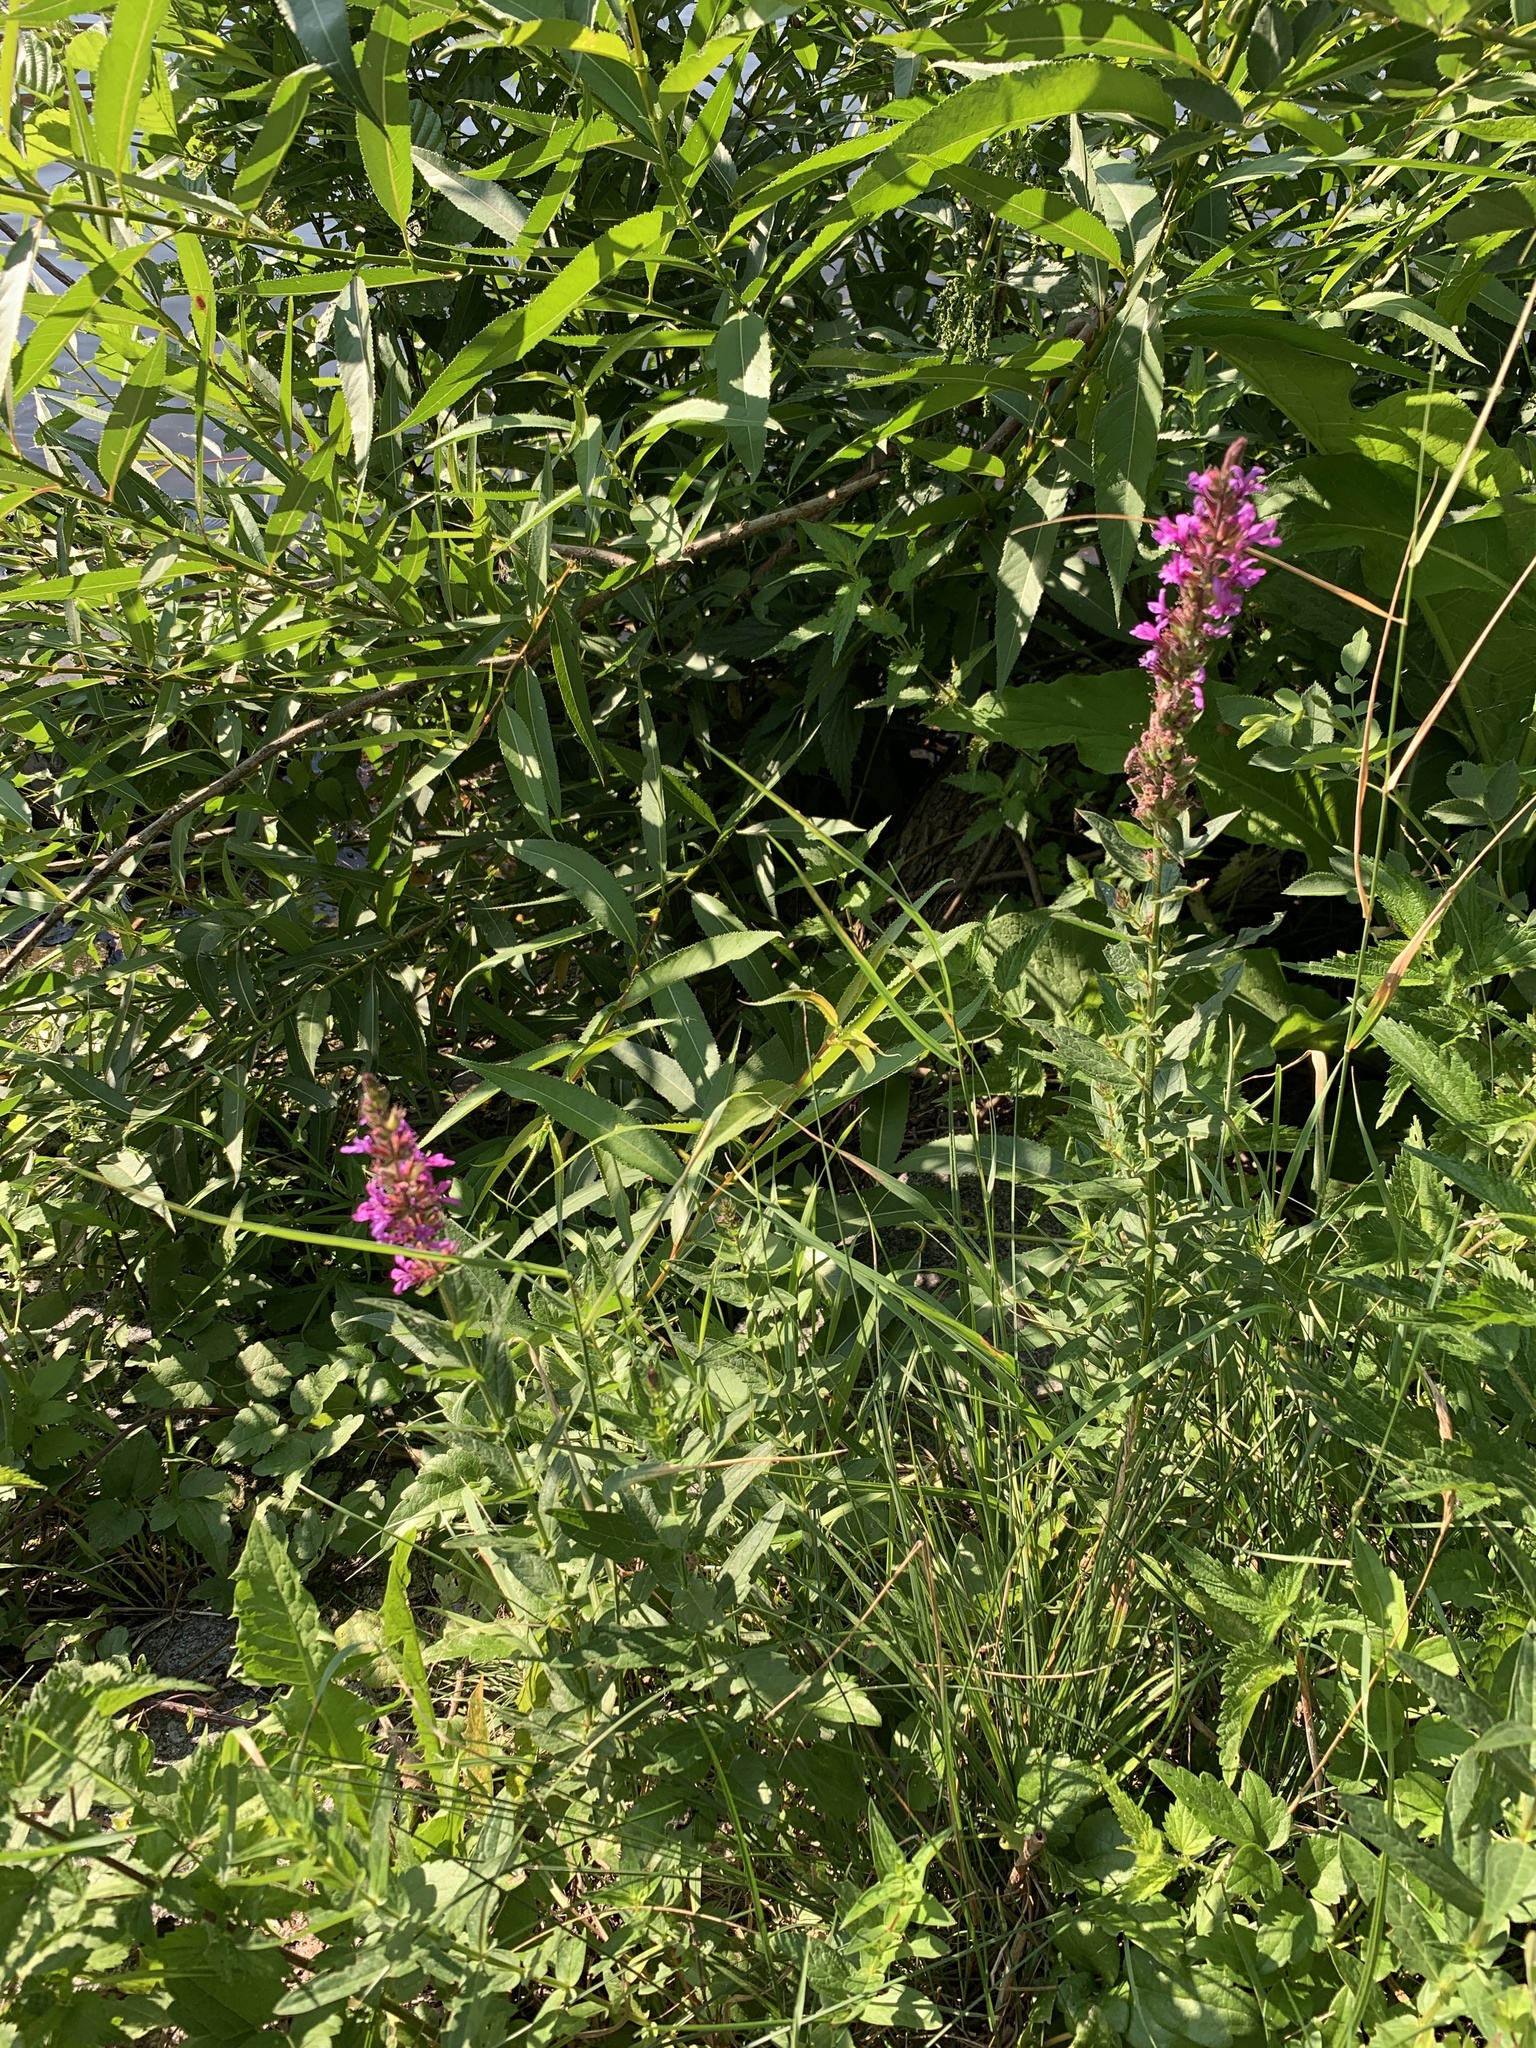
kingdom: Plantae
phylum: Tracheophyta
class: Magnoliopsida
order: Myrtales
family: Lythraceae
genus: Lythrum
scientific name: Lythrum salicaria
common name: Purple loosestrife
